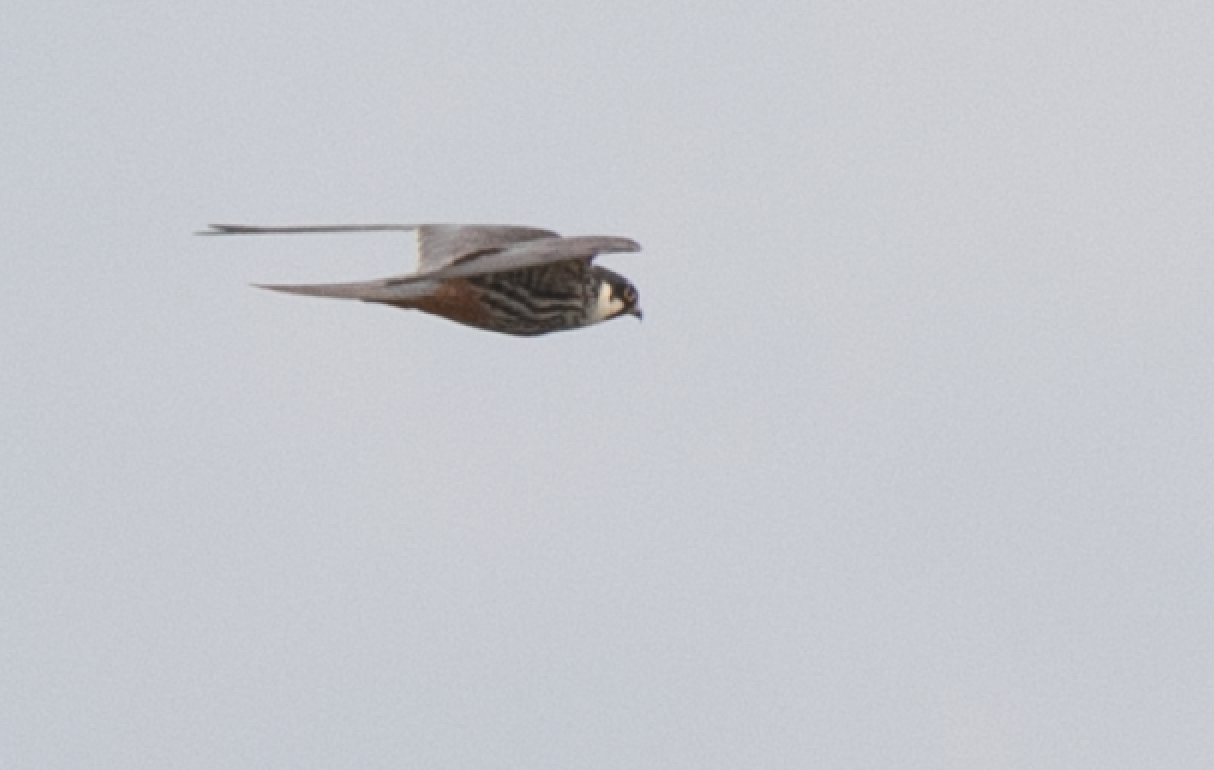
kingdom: Animalia
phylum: Chordata
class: Aves
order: Falconiformes
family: Falconidae
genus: Falco
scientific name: Falco subbuteo
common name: Eurasian hobby
